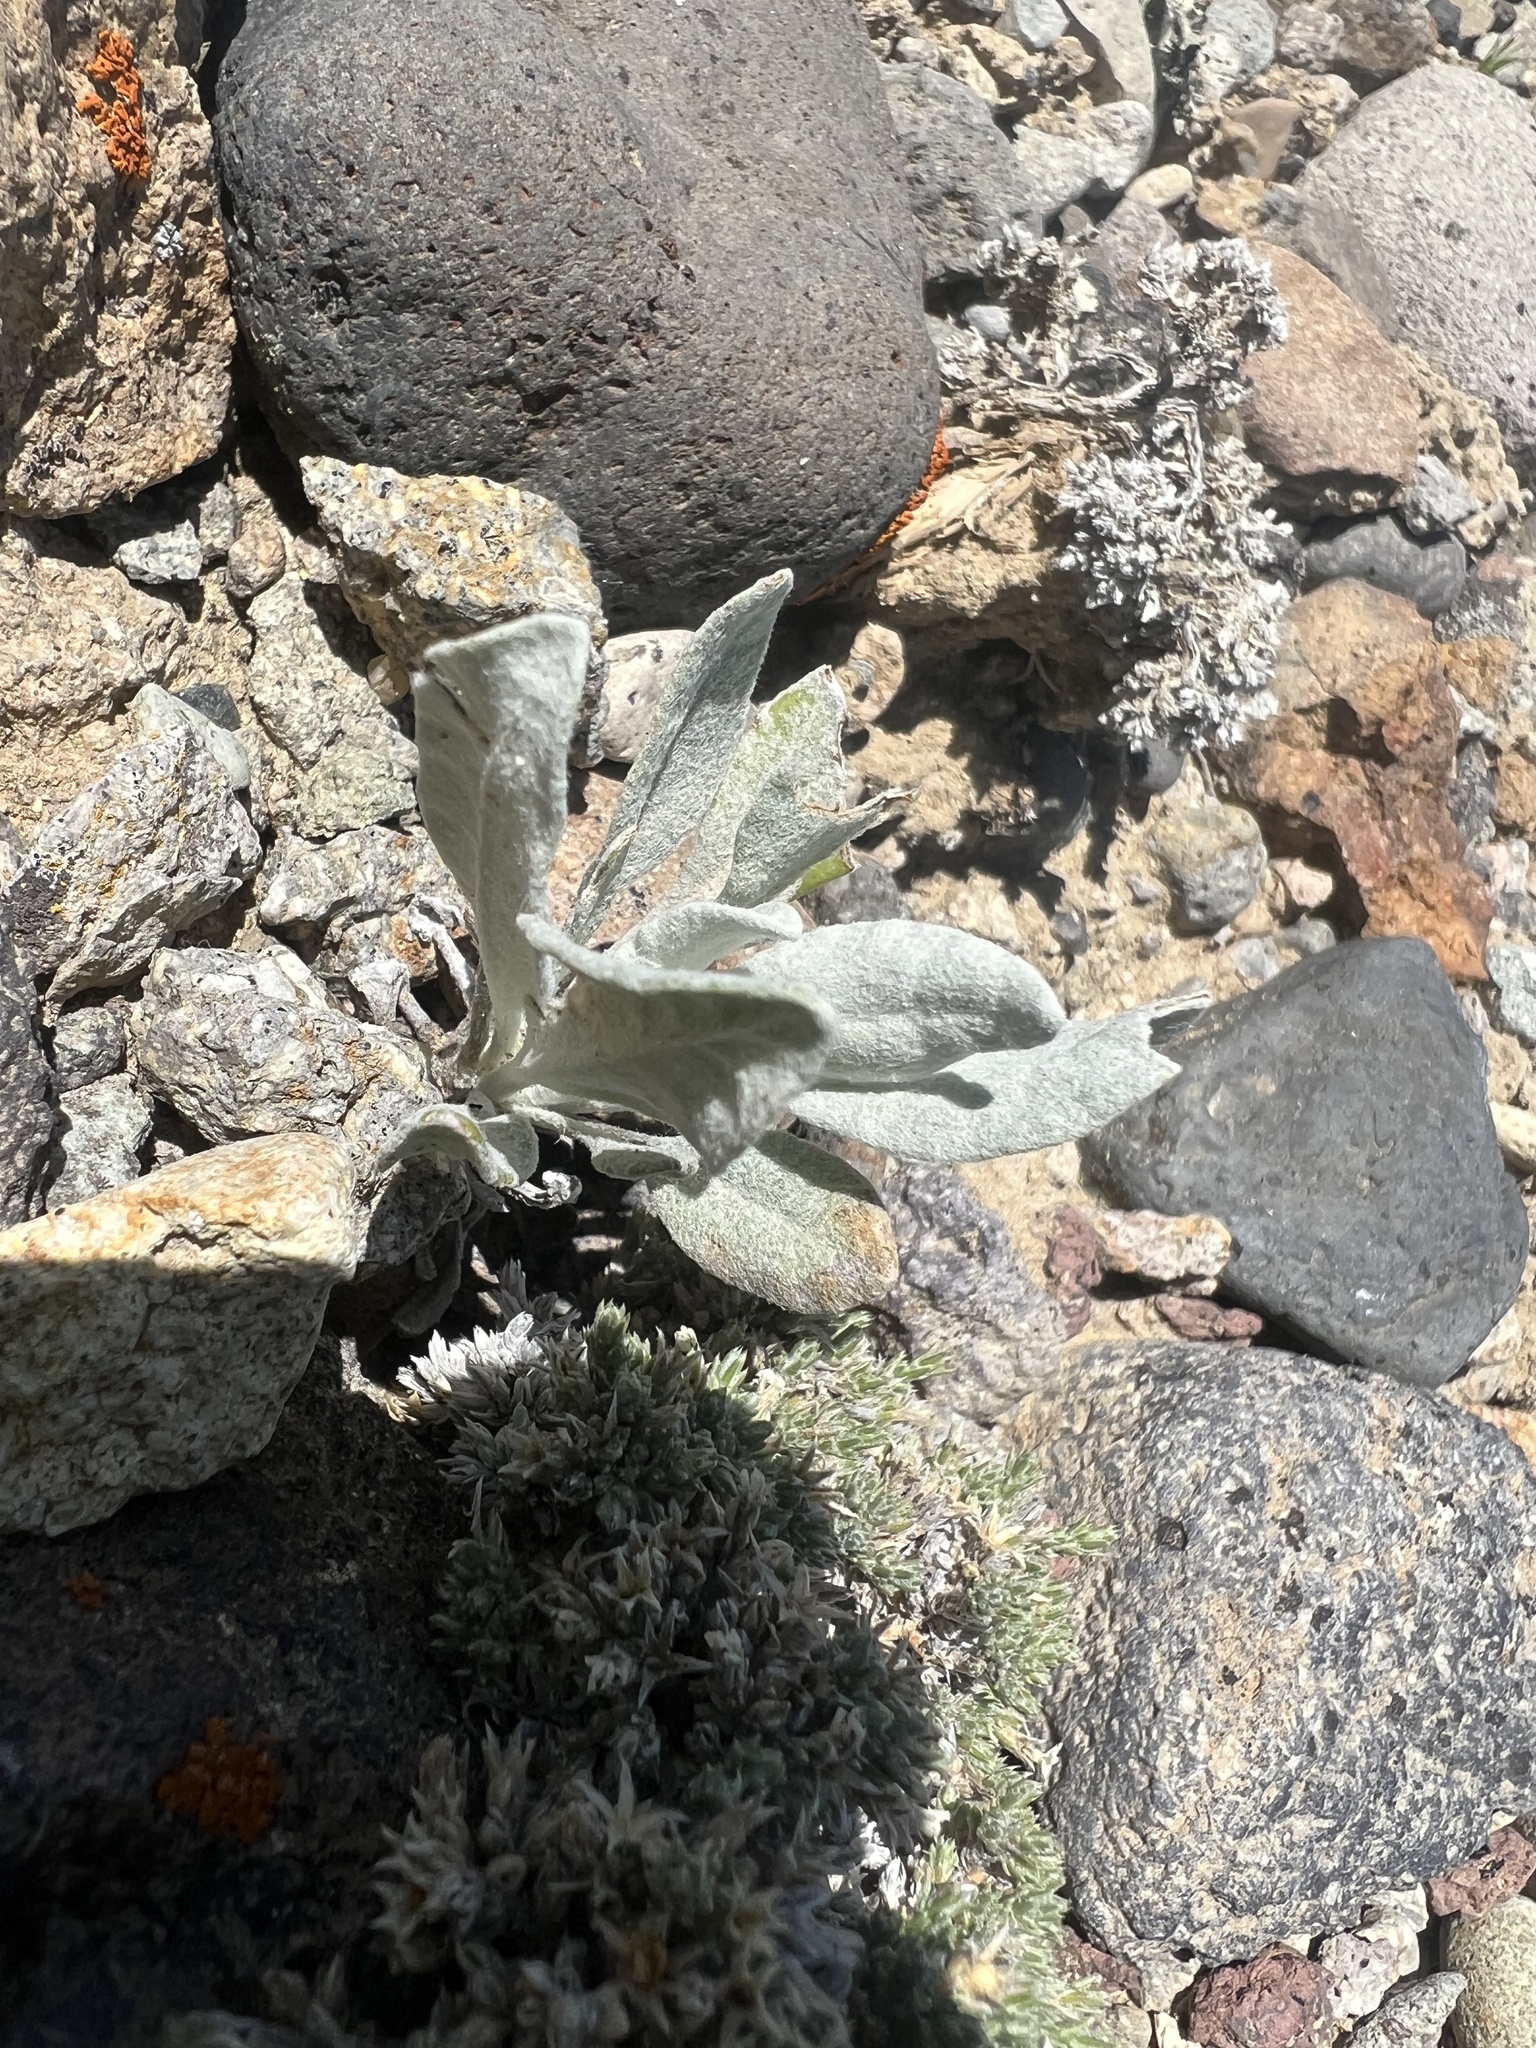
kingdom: Plantae
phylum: Tracheophyta
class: Magnoliopsida
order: Asterales
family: Asteraceae
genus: Packera
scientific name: Packera cana
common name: Woolly groundsel
